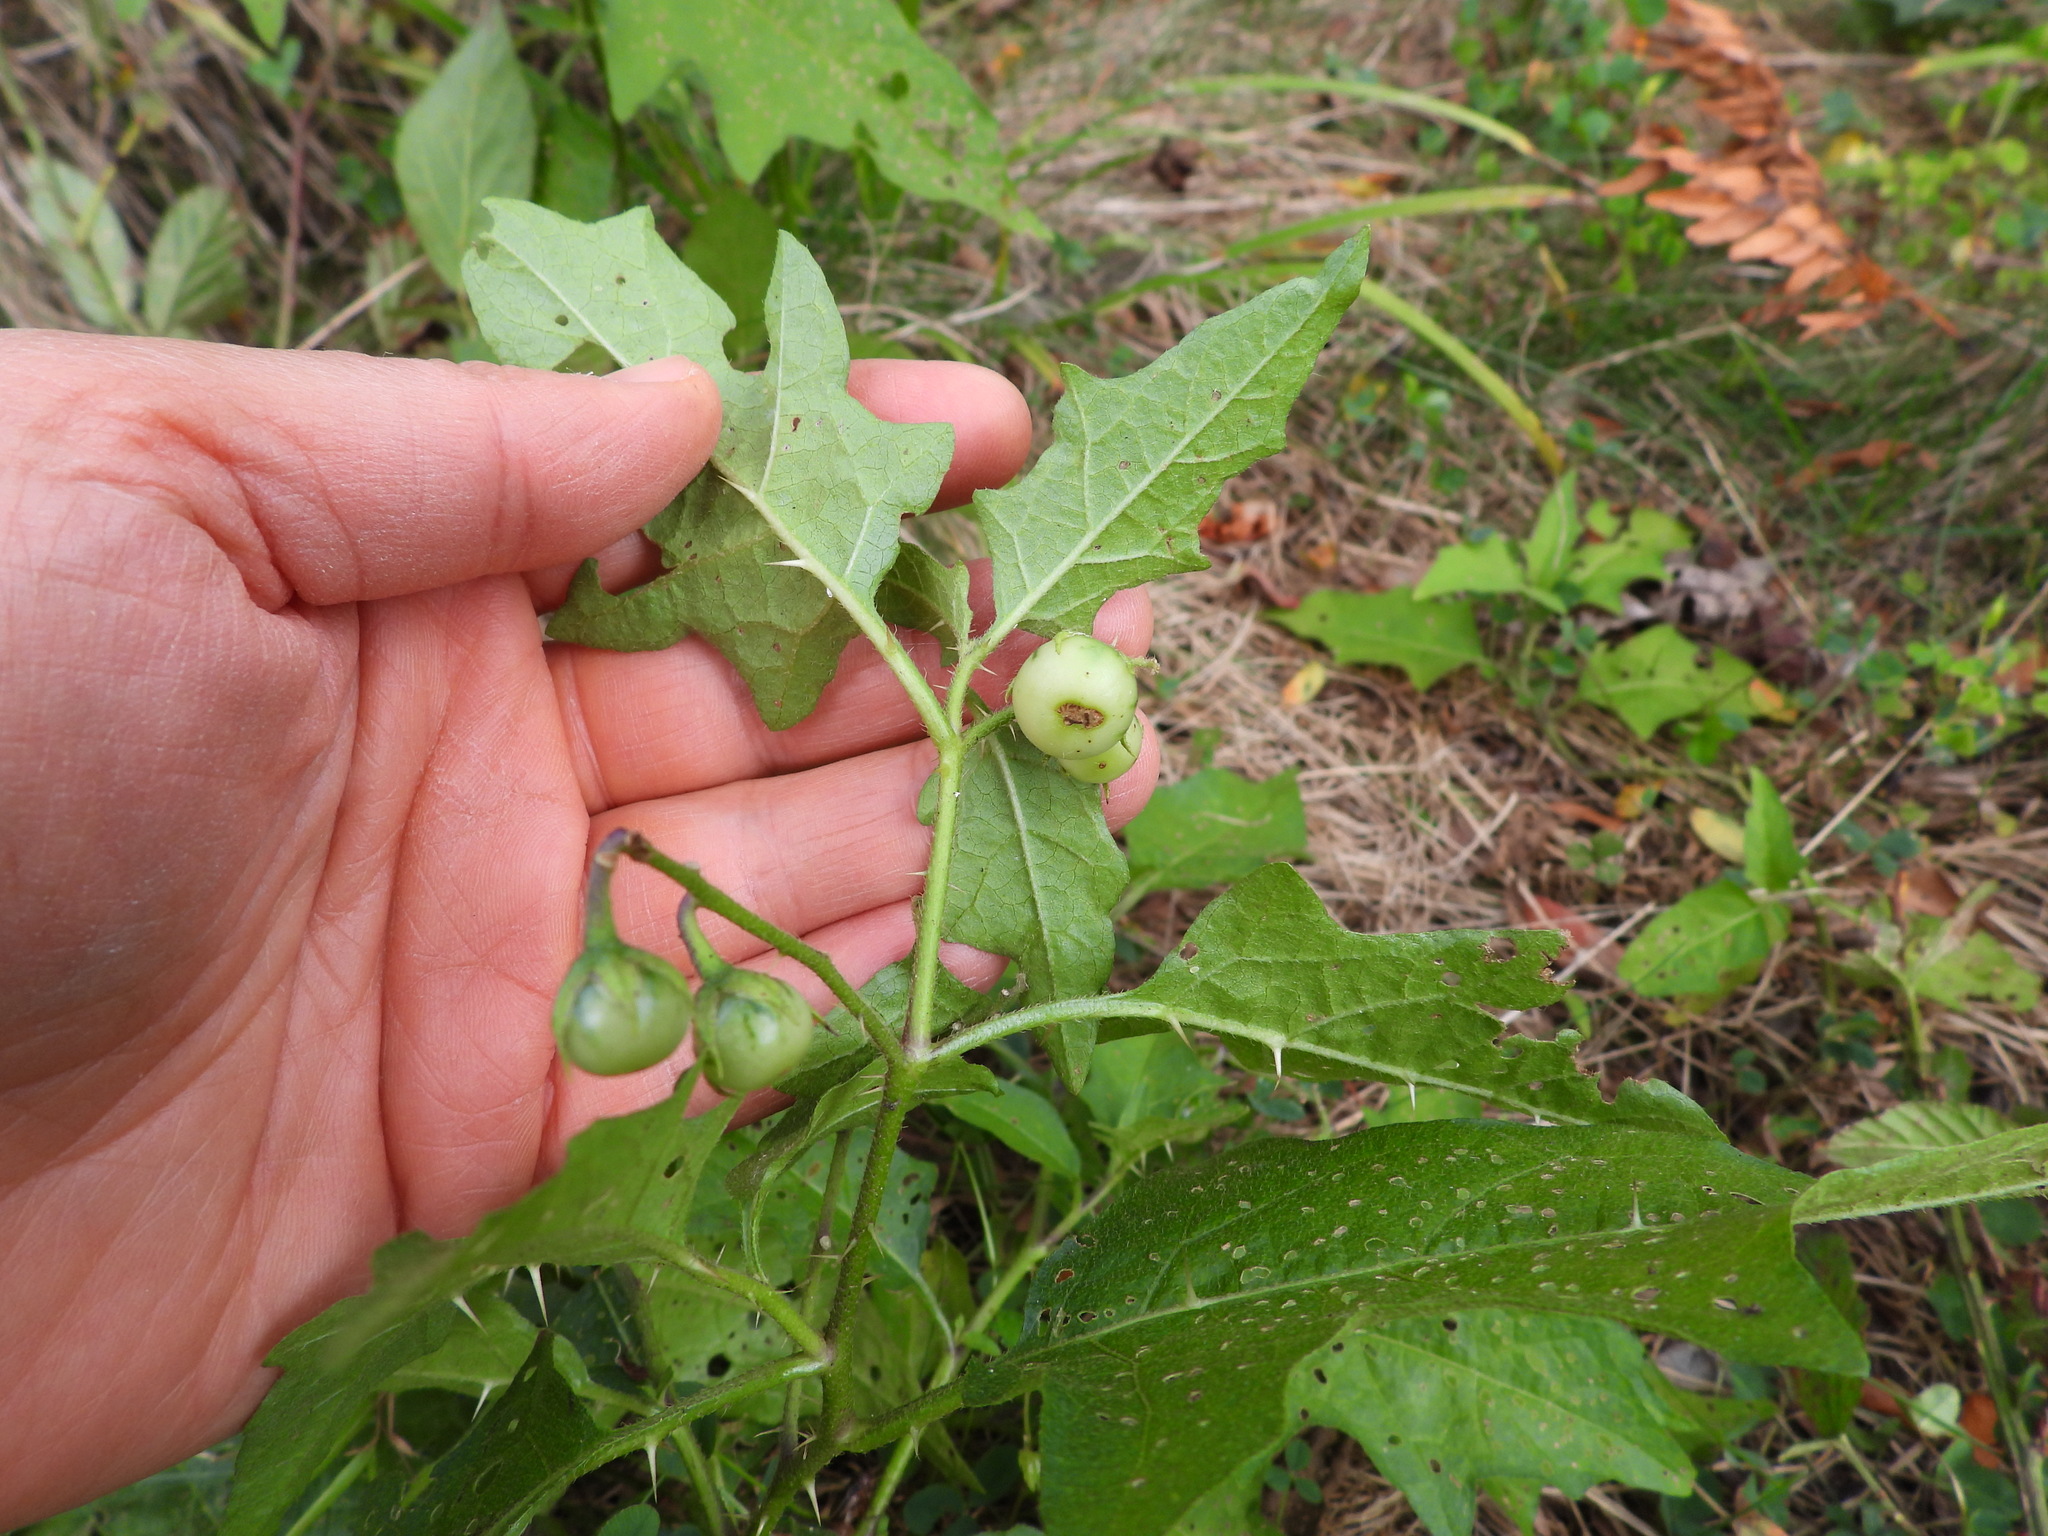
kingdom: Plantae
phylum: Tracheophyta
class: Magnoliopsida
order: Solanales
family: Solanaceae
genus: Solanum
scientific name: Solanum carolinense
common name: Horse-nettle
